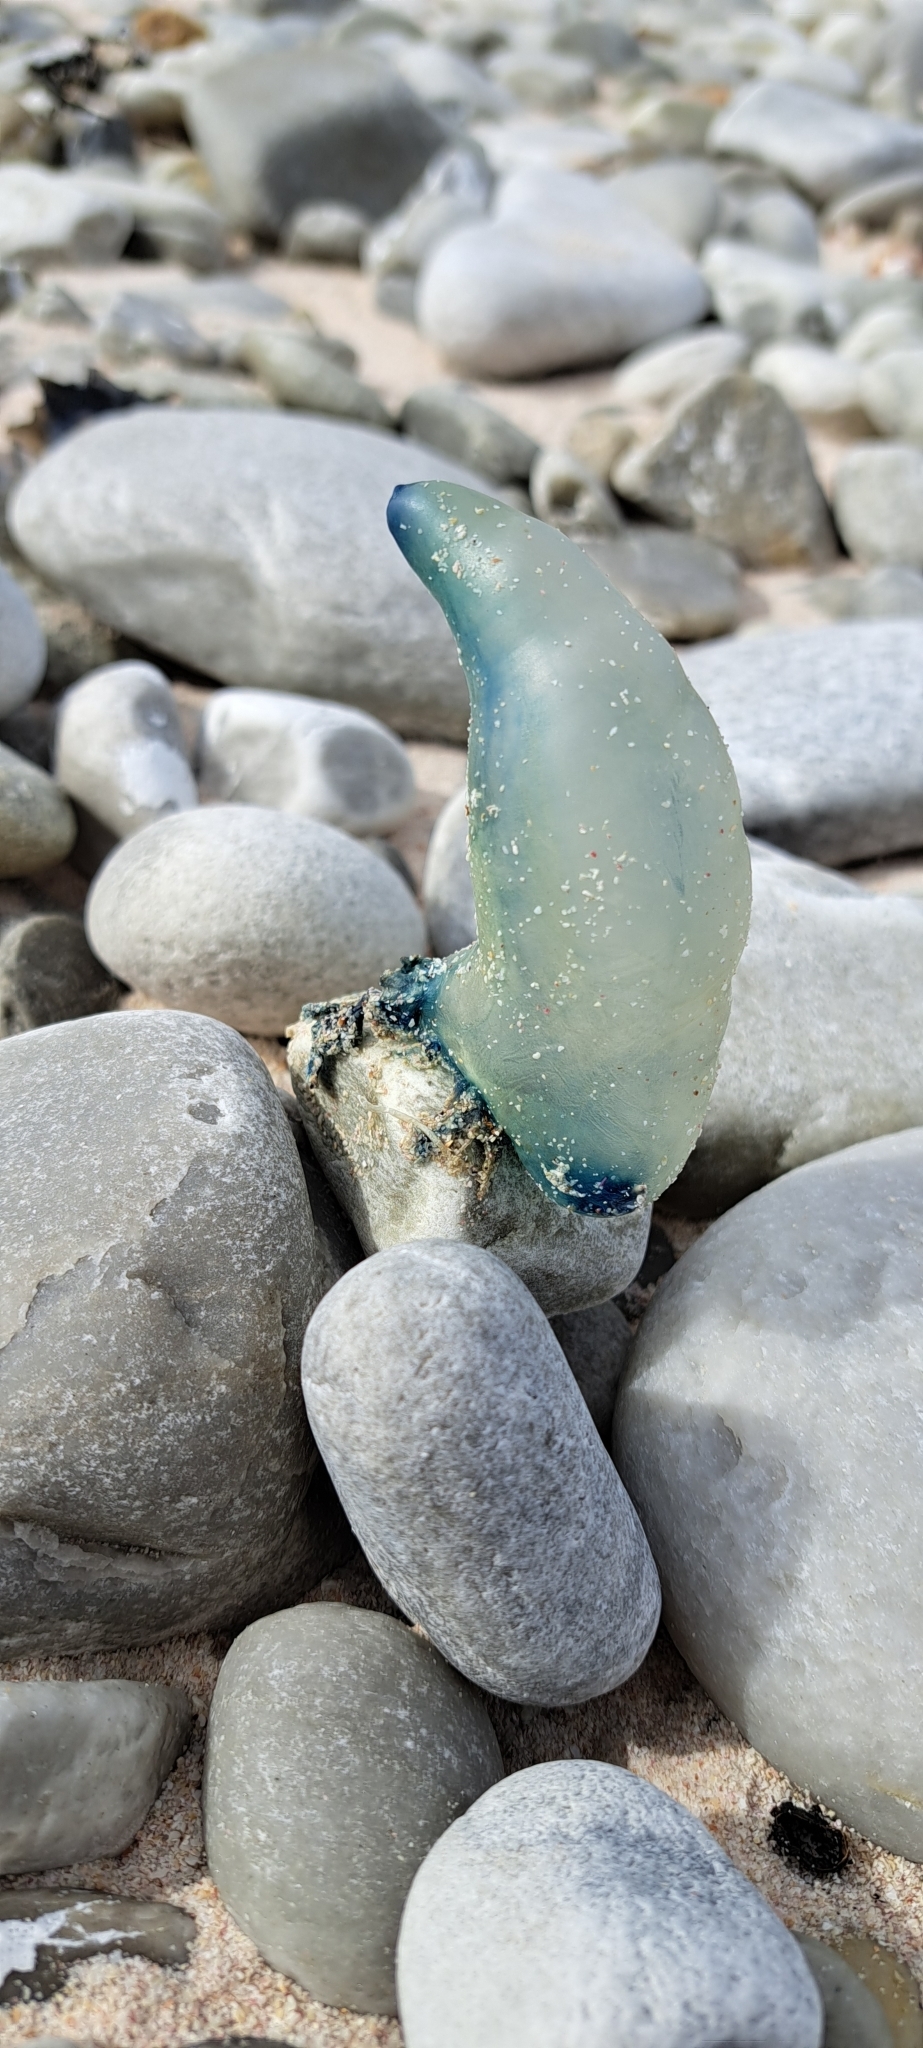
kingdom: Animalia
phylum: Cnidaria
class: Hydrozoa
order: Siphonophorae
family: Physaliidae
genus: Physalia
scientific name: Physalia physalis
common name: Portuguese man-of-war
